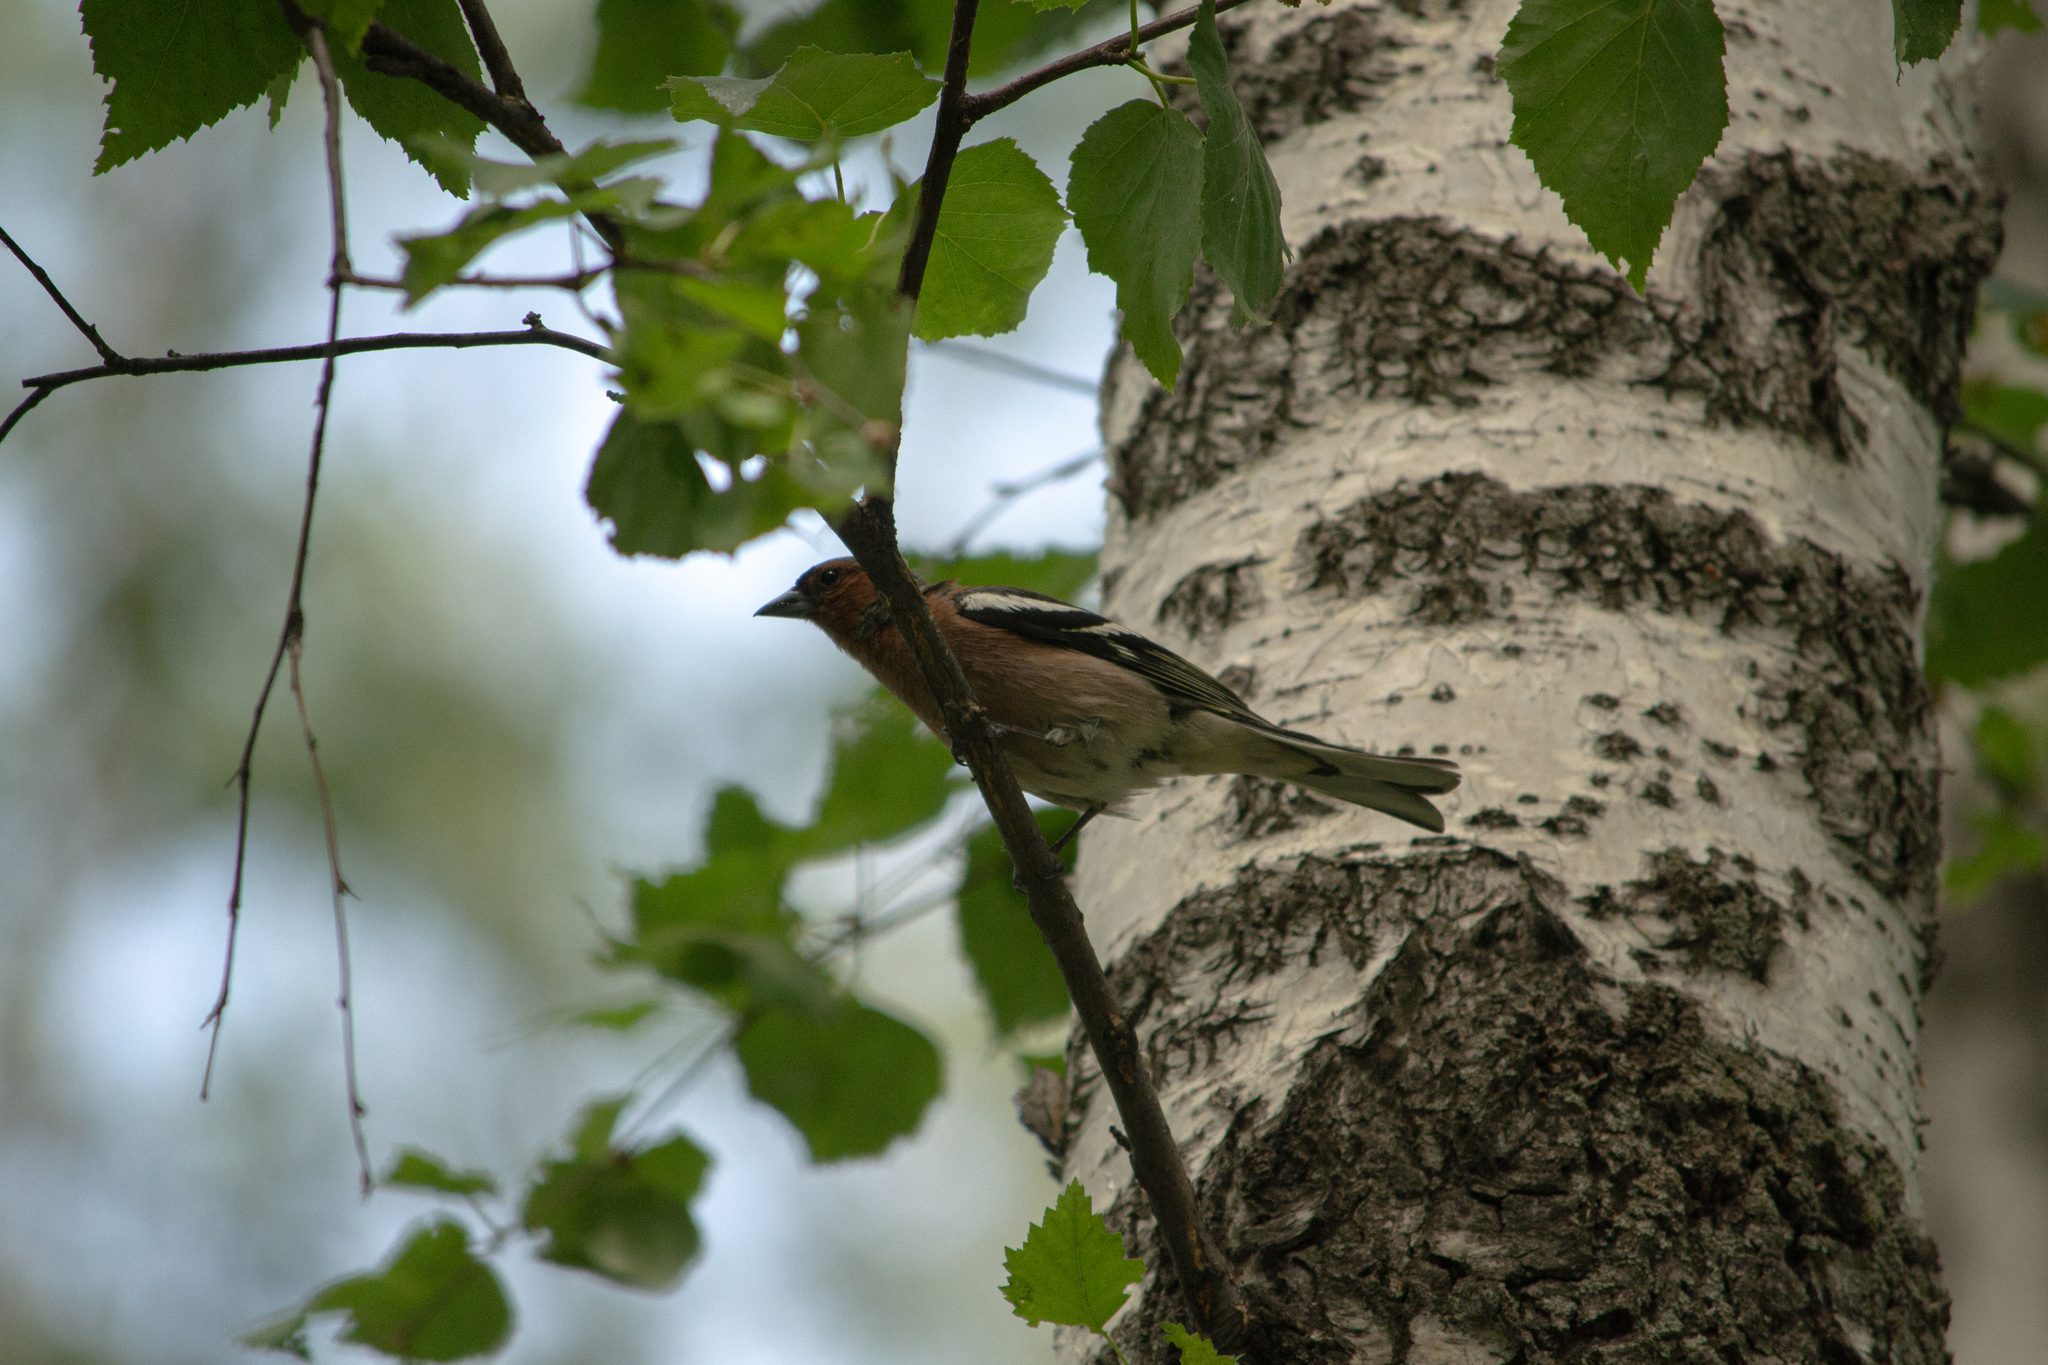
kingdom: Animalia
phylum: Chordata
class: Aves
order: Passeriformes
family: Fringillidae
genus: Fringilla
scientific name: Fringilla coelebs
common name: Common chaffinch
